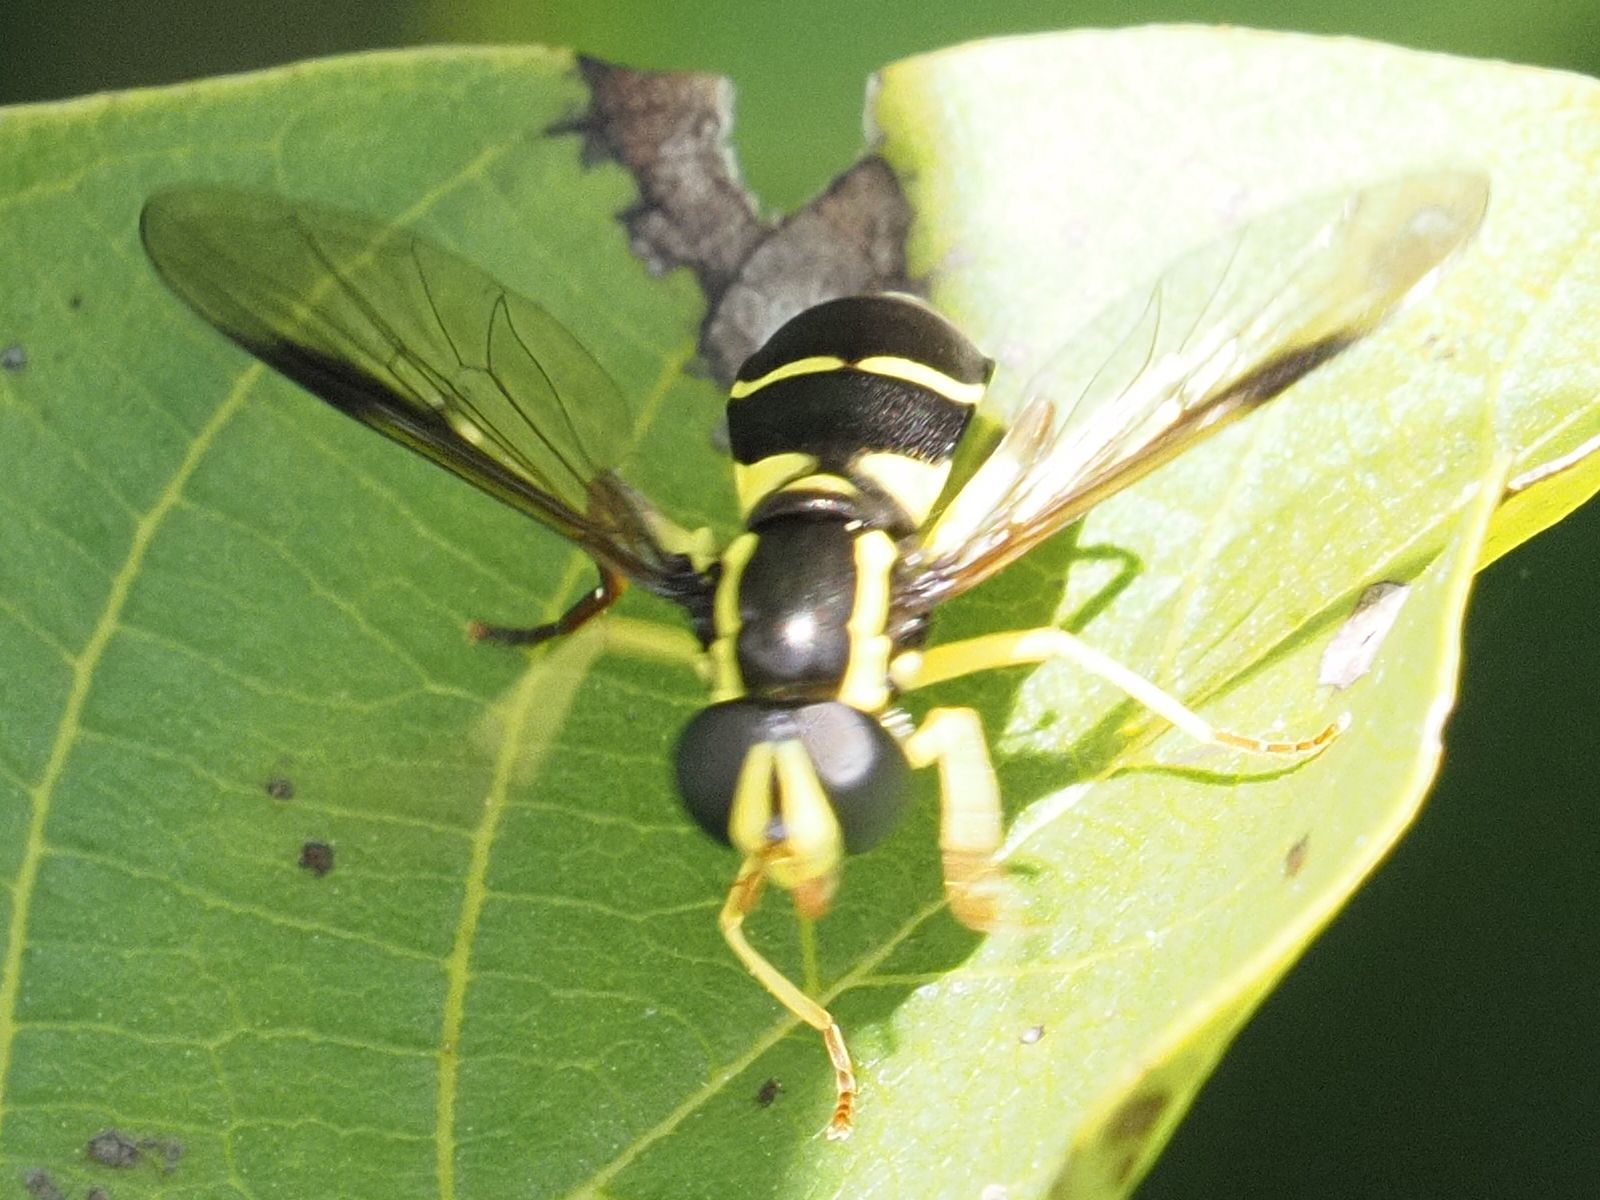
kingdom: Animalia
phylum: Arthropoda
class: Insecta
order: Diptera
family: Syrphidae
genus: Philhelius
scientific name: Philhelius pedissequum
